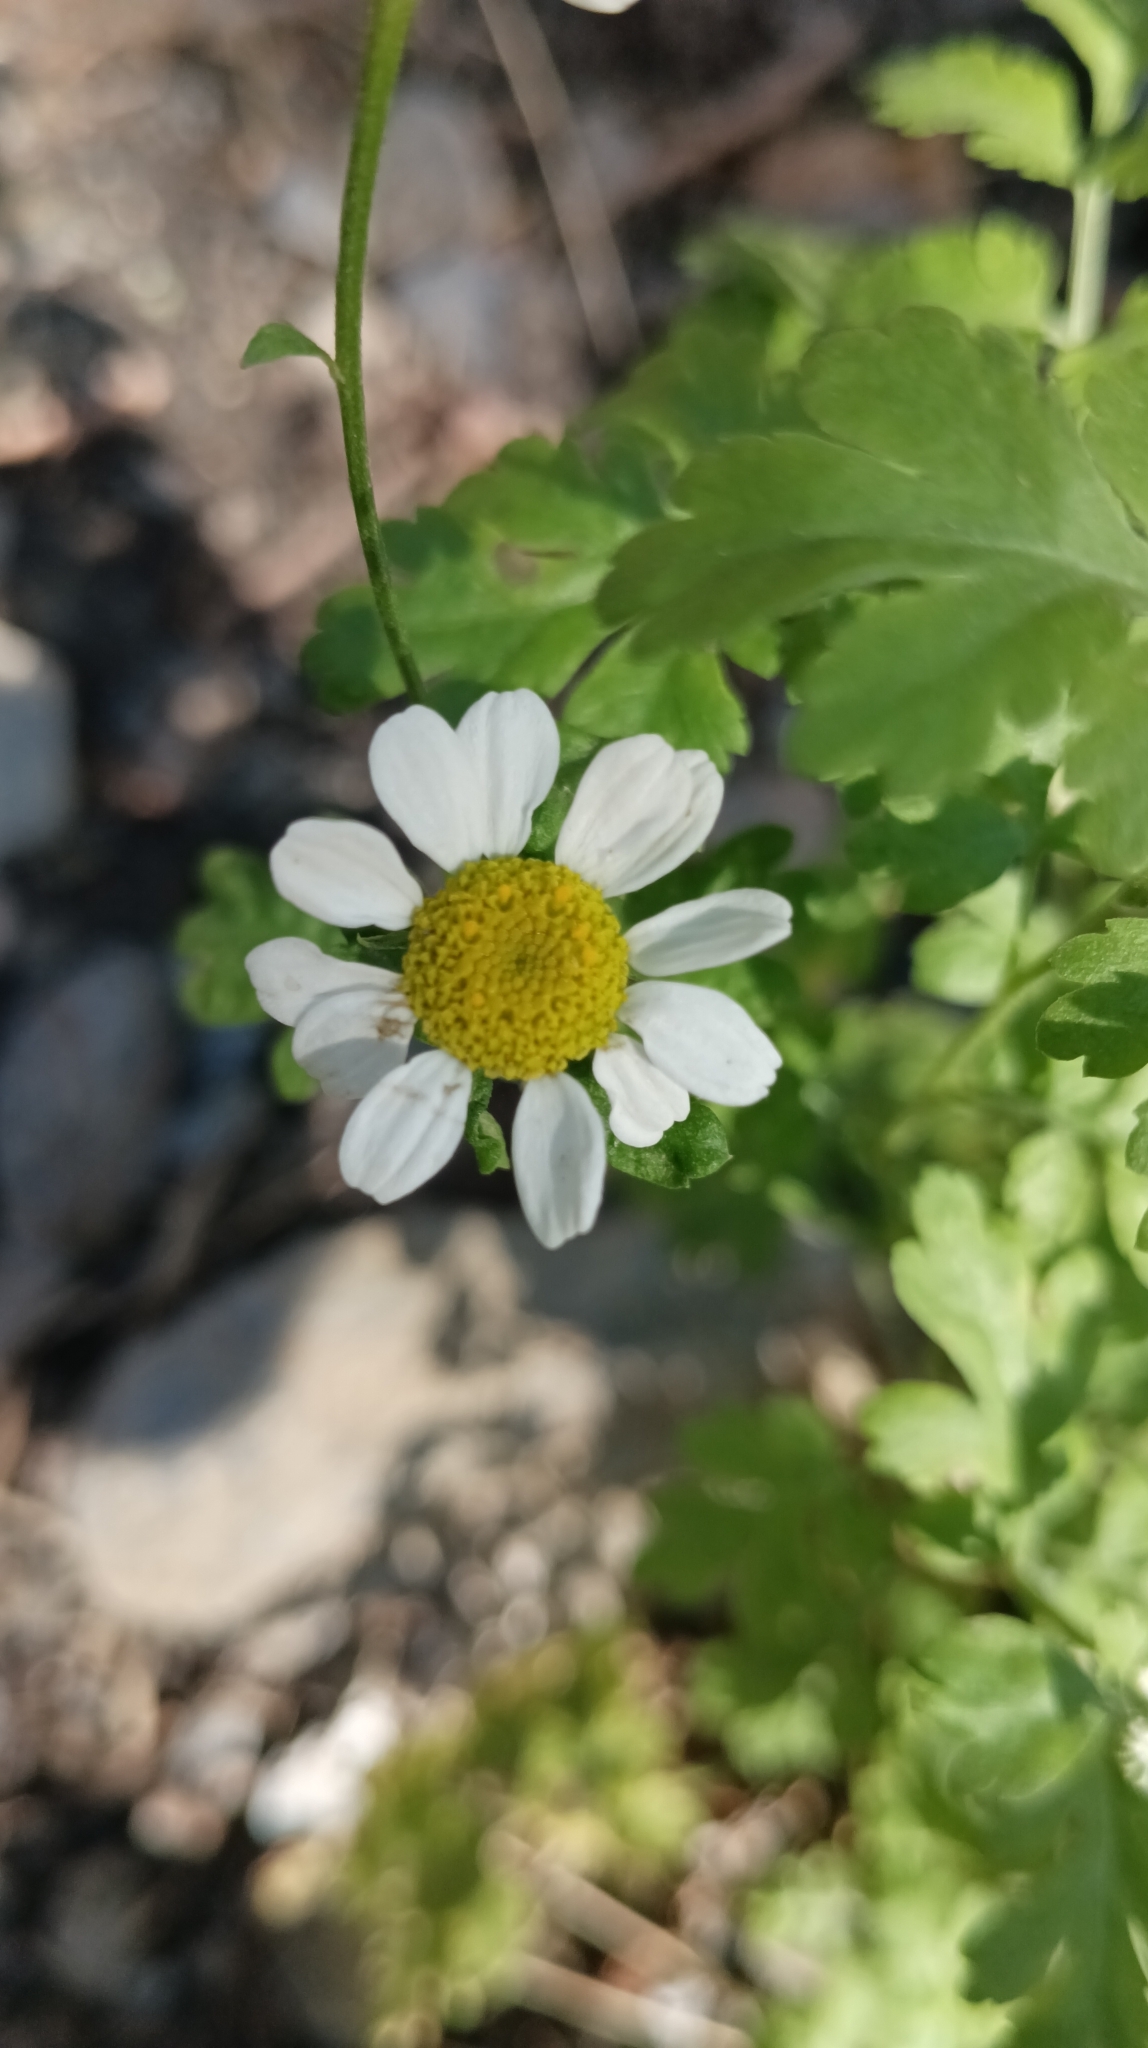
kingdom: Plantae
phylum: Tracheophyta
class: Magnoliopsida
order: Asterales
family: Asteraceae
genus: Tanacetum
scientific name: Tanacetum parthenium
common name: Feverfew
